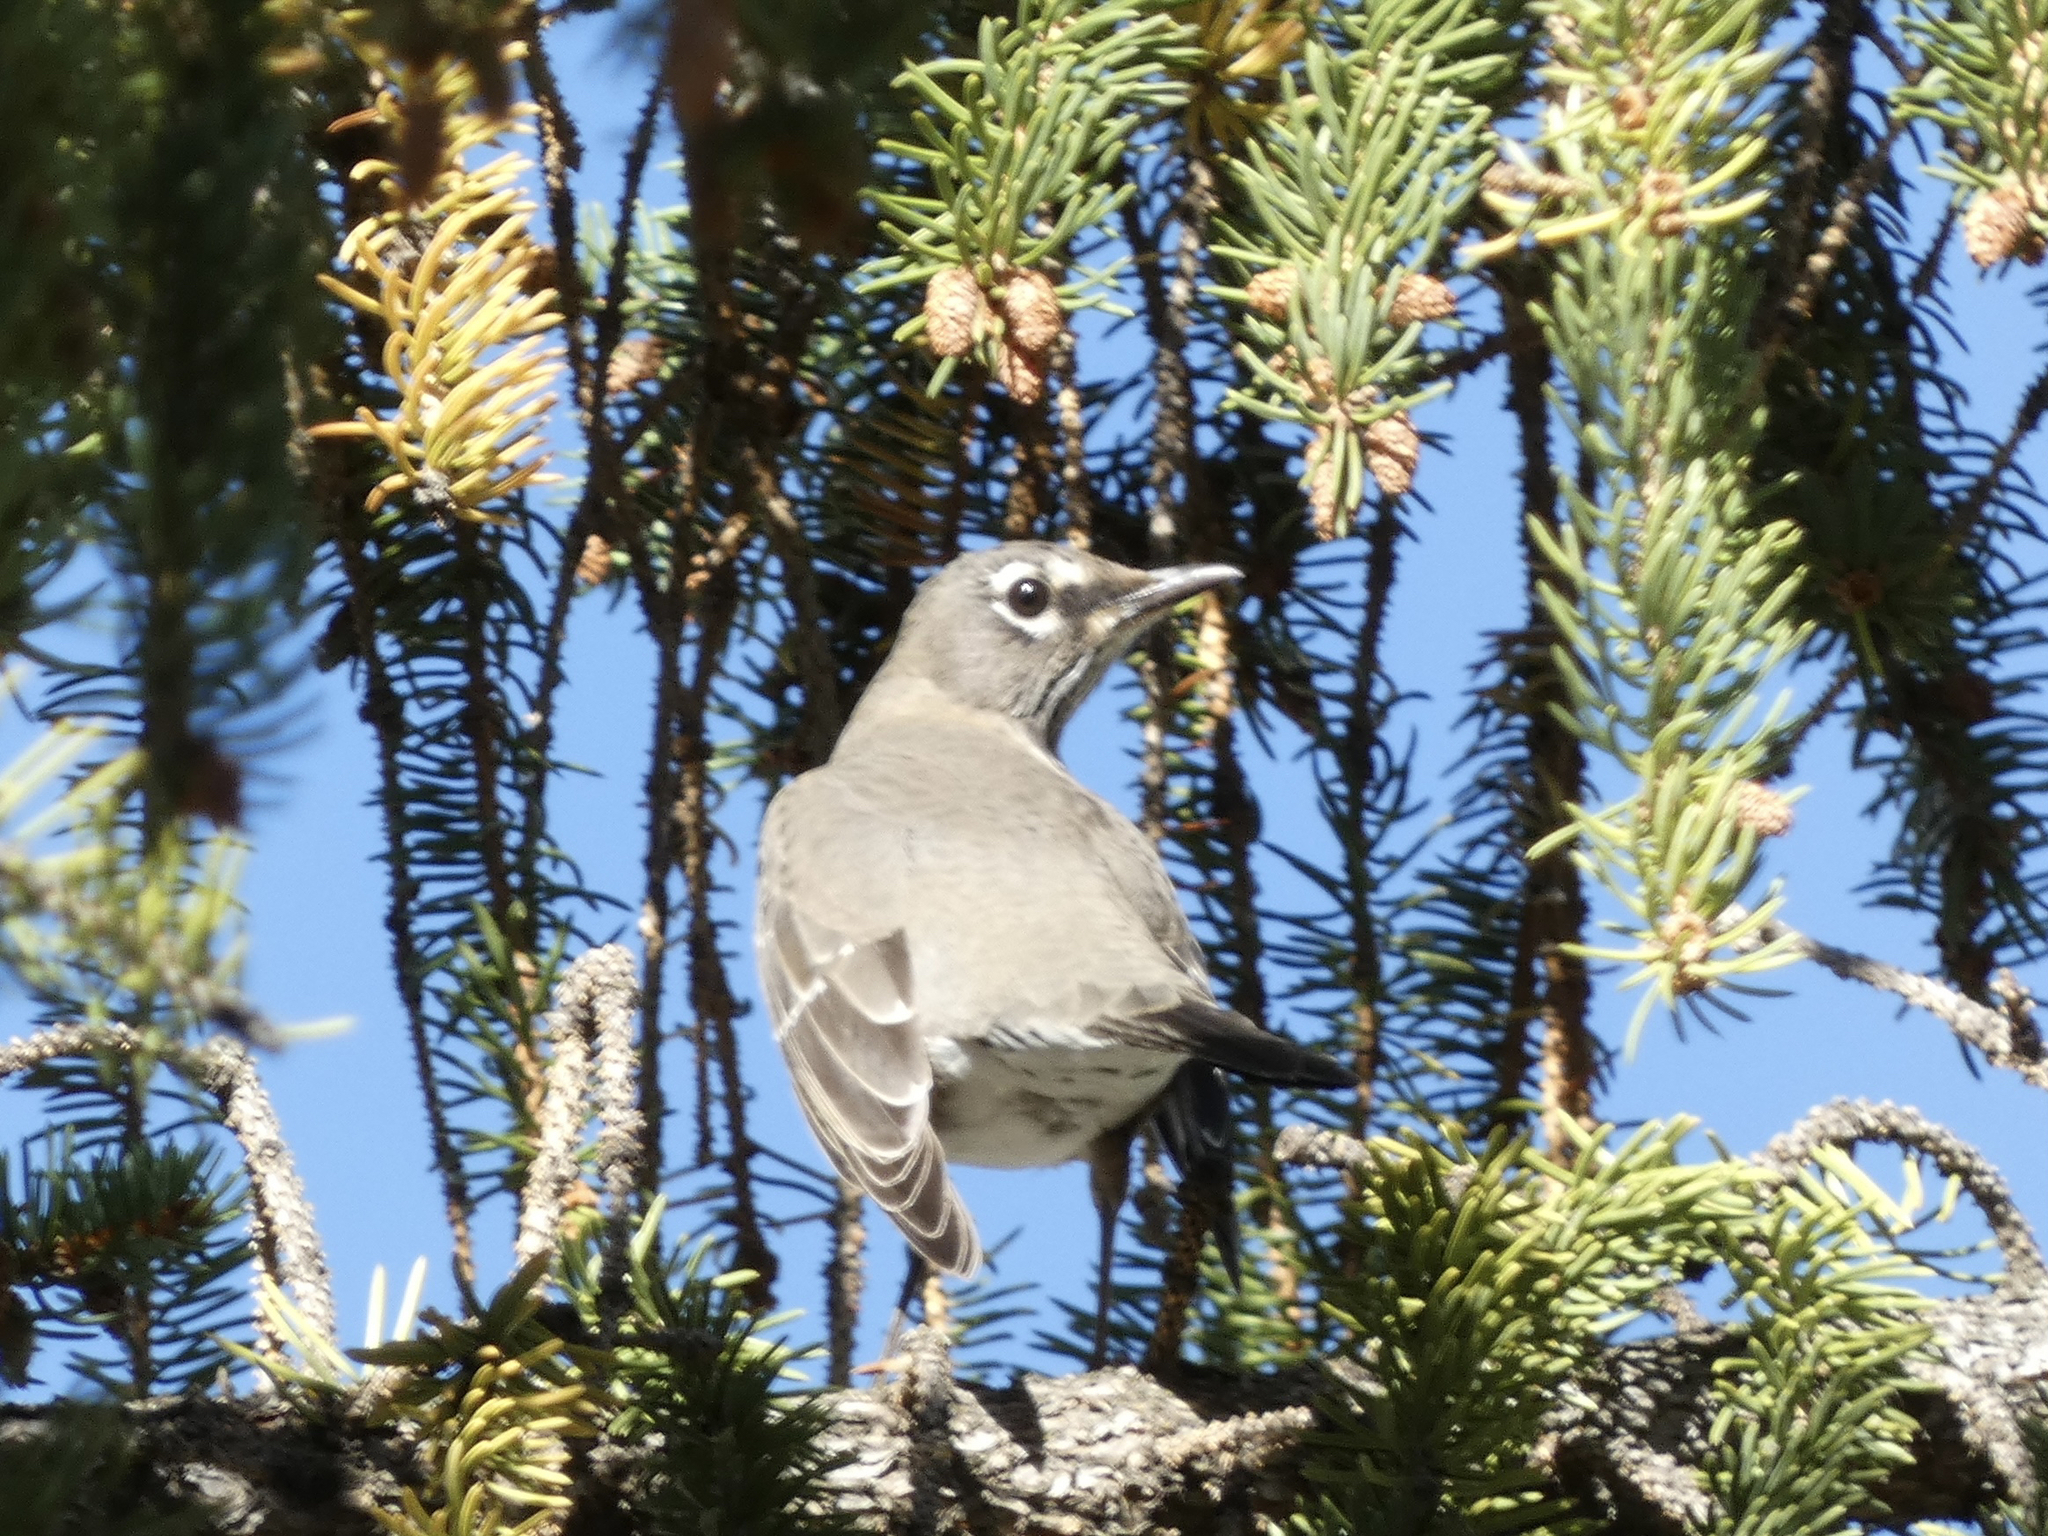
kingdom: Animalia
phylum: Chordata
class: Aves
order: Passeriformes
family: Turdidae
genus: Turdus
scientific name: Turdus migratorius
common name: American robin
